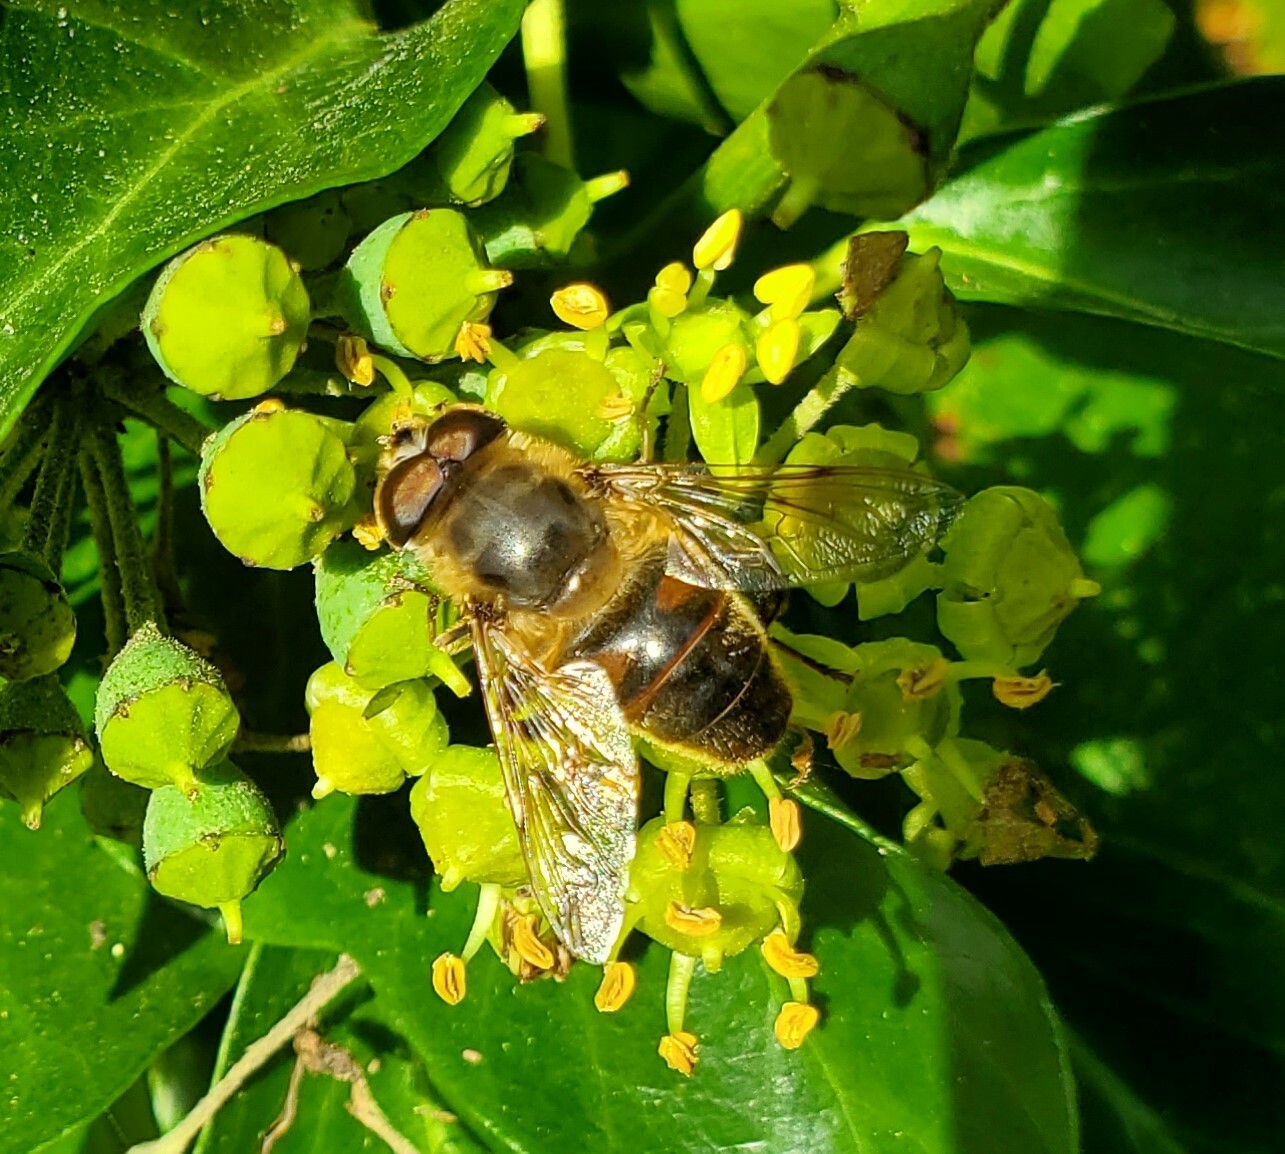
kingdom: Animalia
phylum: Arthropoda
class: Insecta
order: Diptera
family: Syrphidae
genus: Eristalis
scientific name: Eristalis tenax
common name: Drone fly
